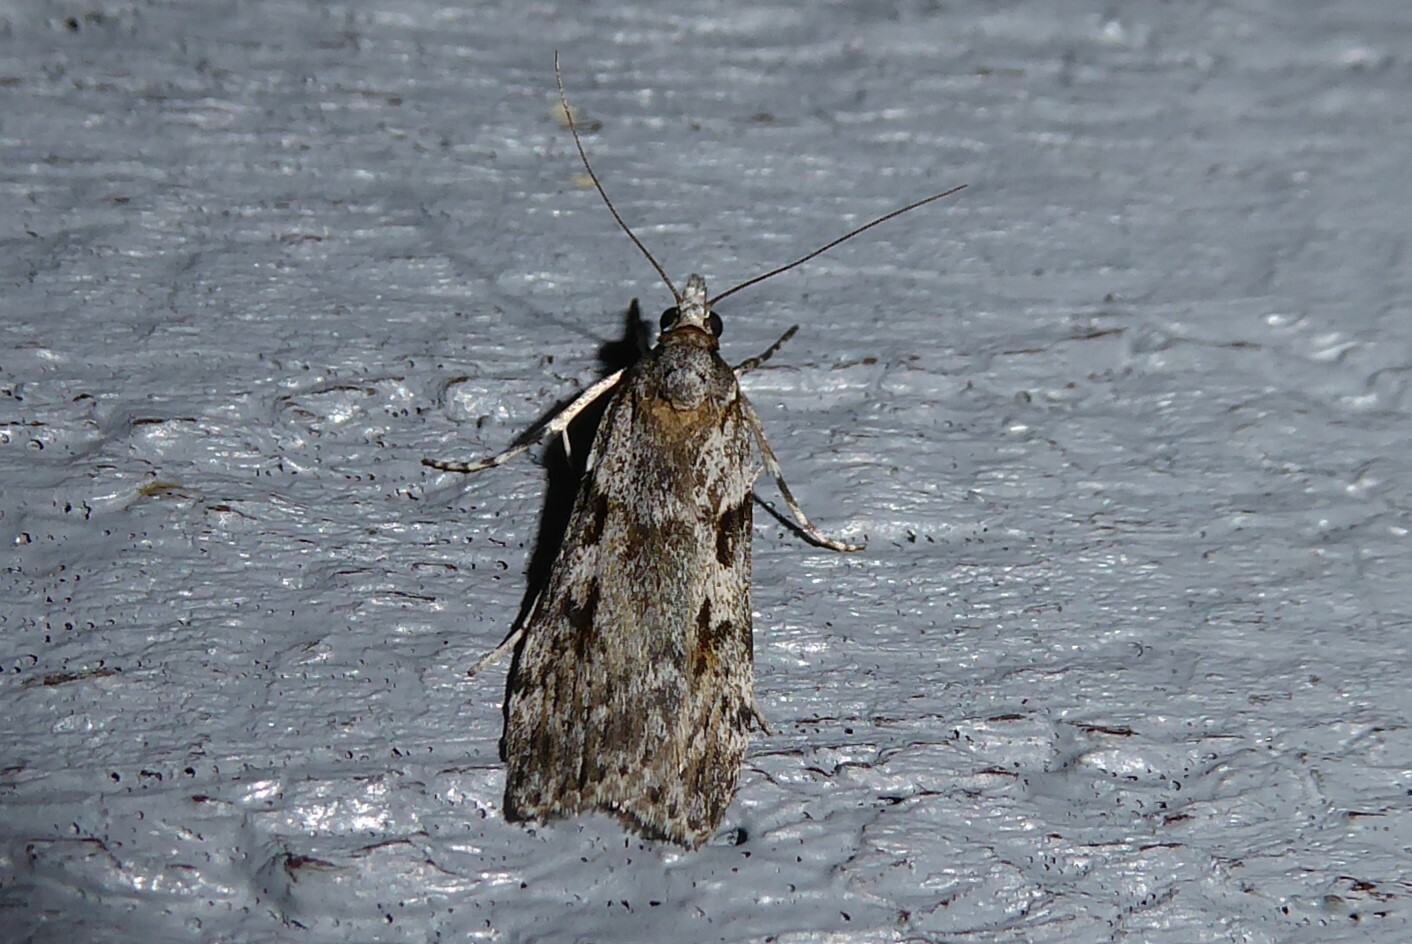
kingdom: Animalia
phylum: Arthropoda
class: Insecta
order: Lepidoptera
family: Crambidae
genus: Scoparia
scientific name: Scoparia halopis
